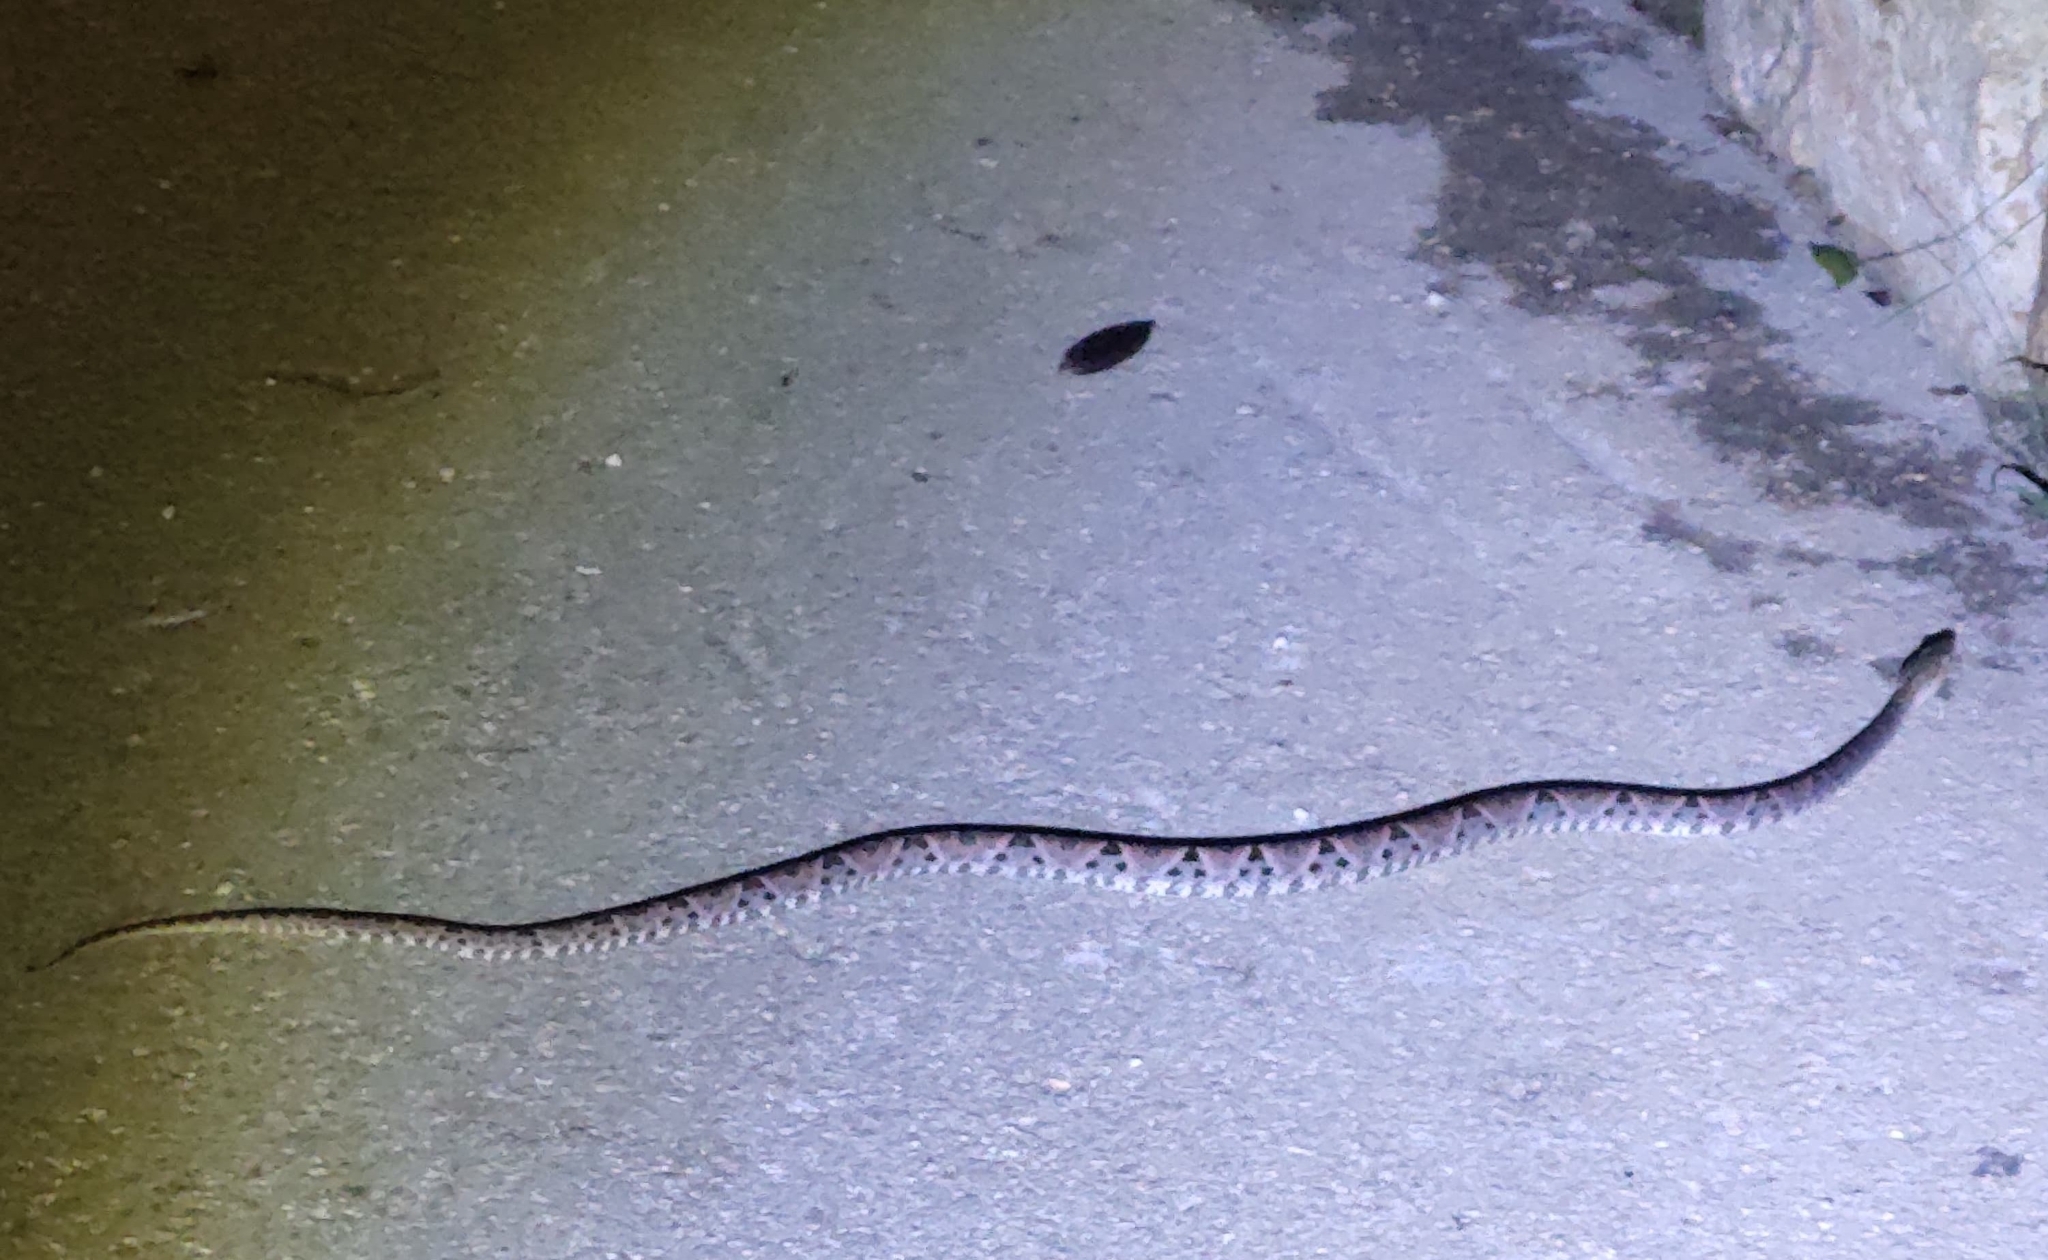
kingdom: Animalia
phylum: Chordata
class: Squamata
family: Viperidae
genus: Bothrops
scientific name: Bothrops asper
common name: Terciopelo
